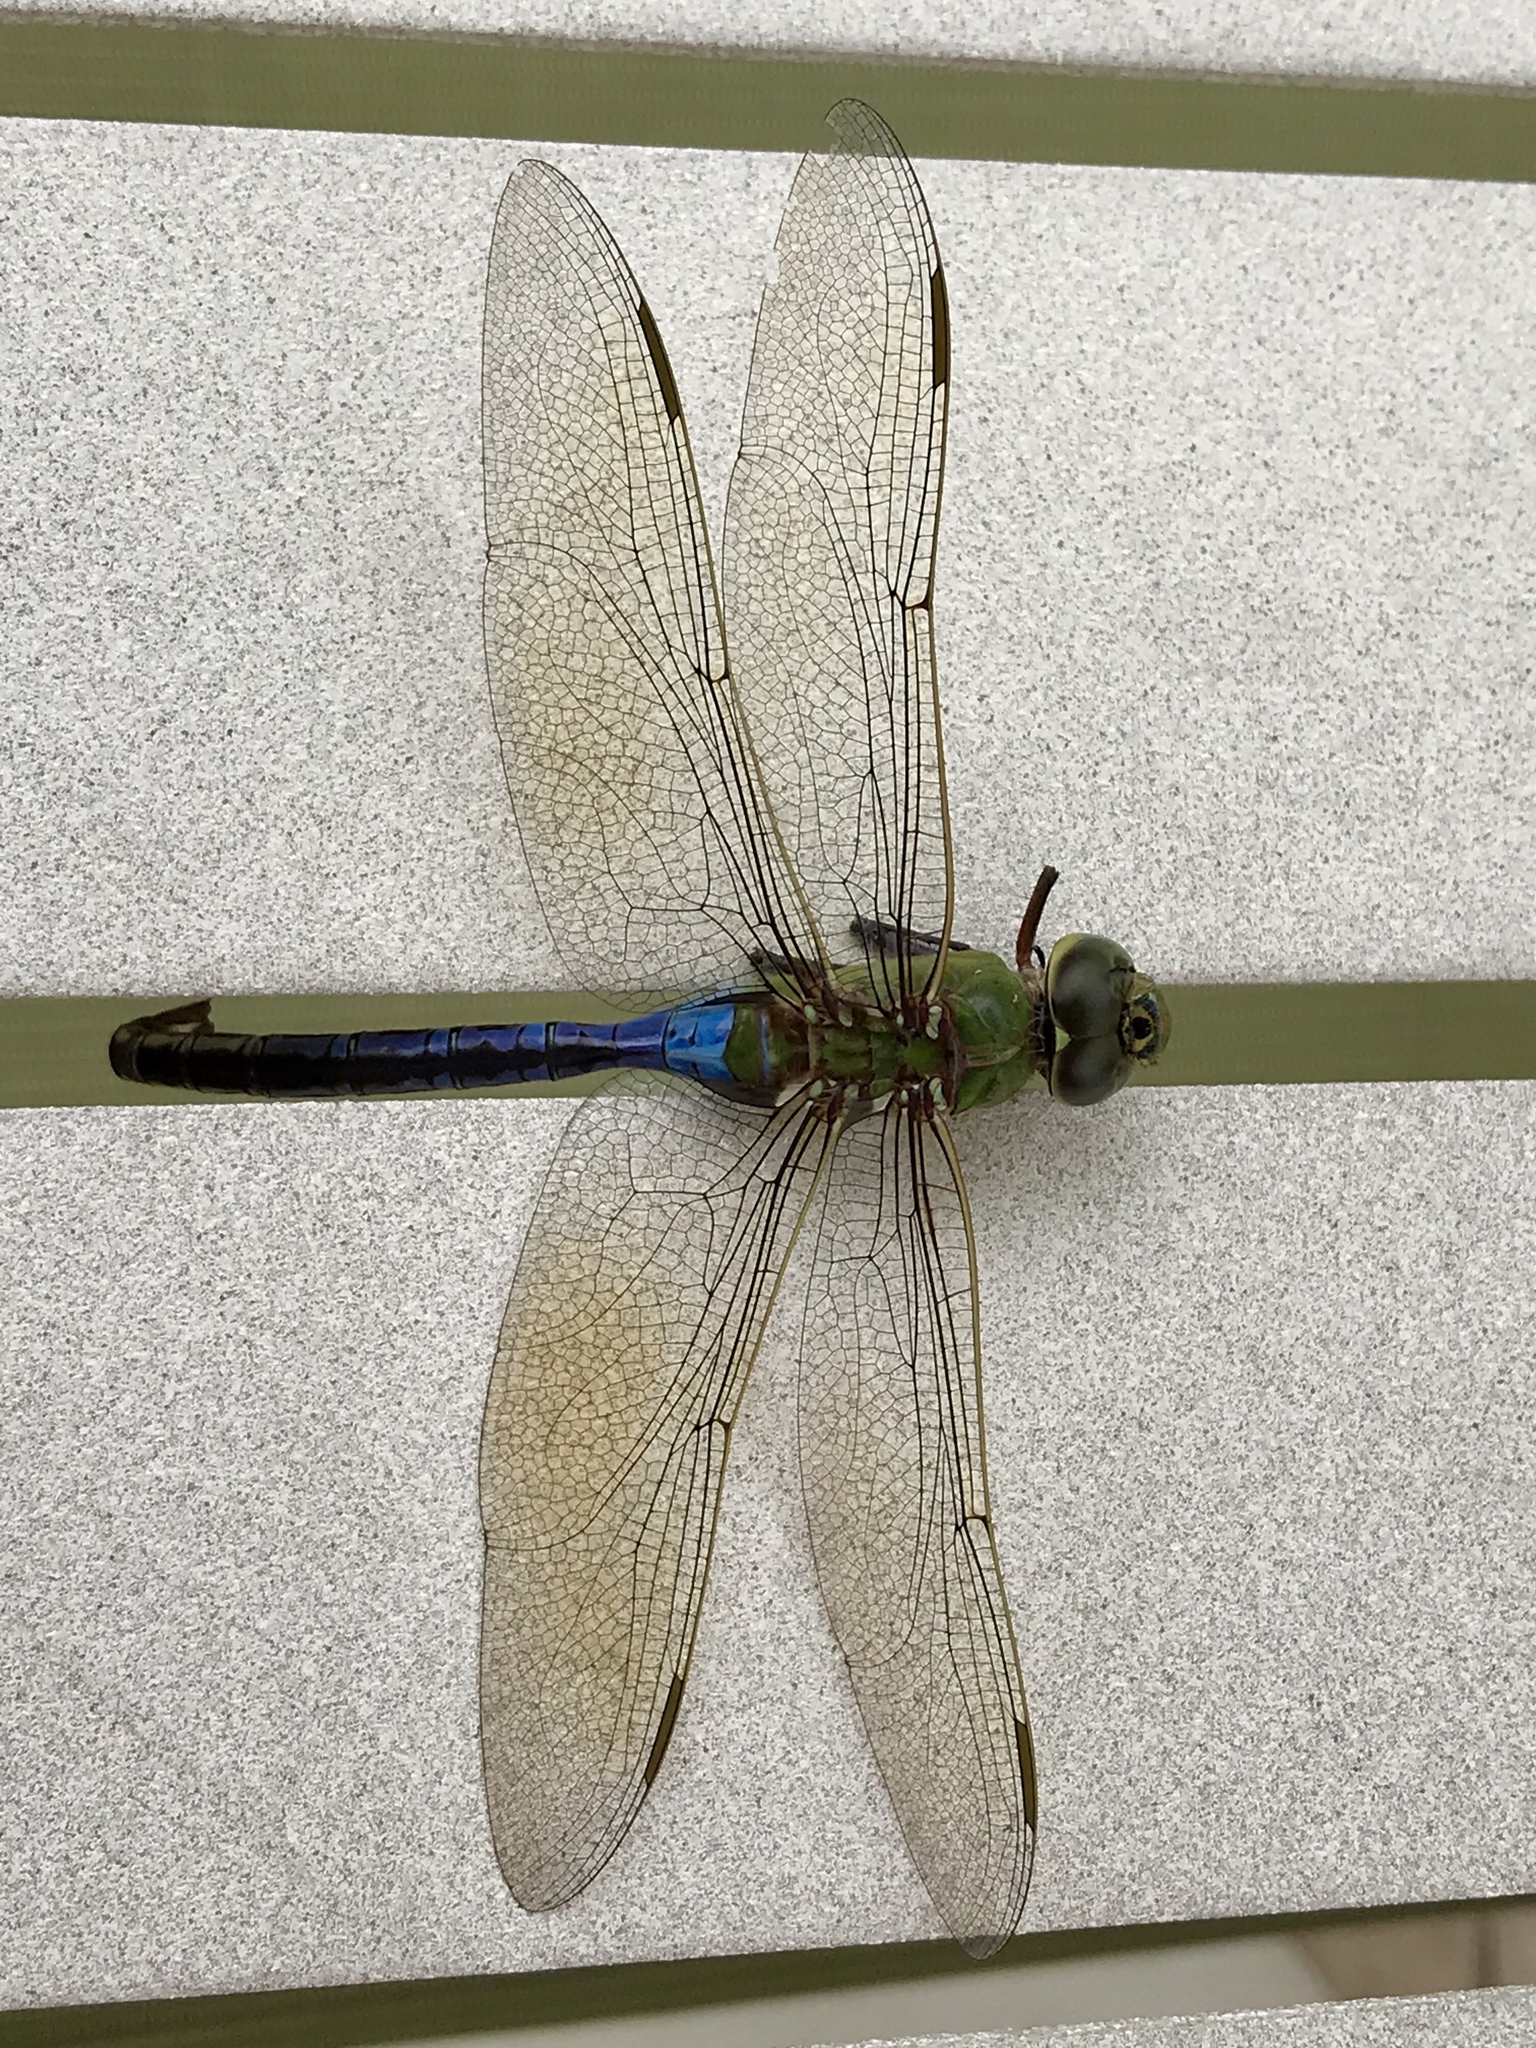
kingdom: Animalia
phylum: Arthropoda
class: Insecta
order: Odonata
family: Aeshnidae
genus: Anax
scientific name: Anax junius
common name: Common green darner
